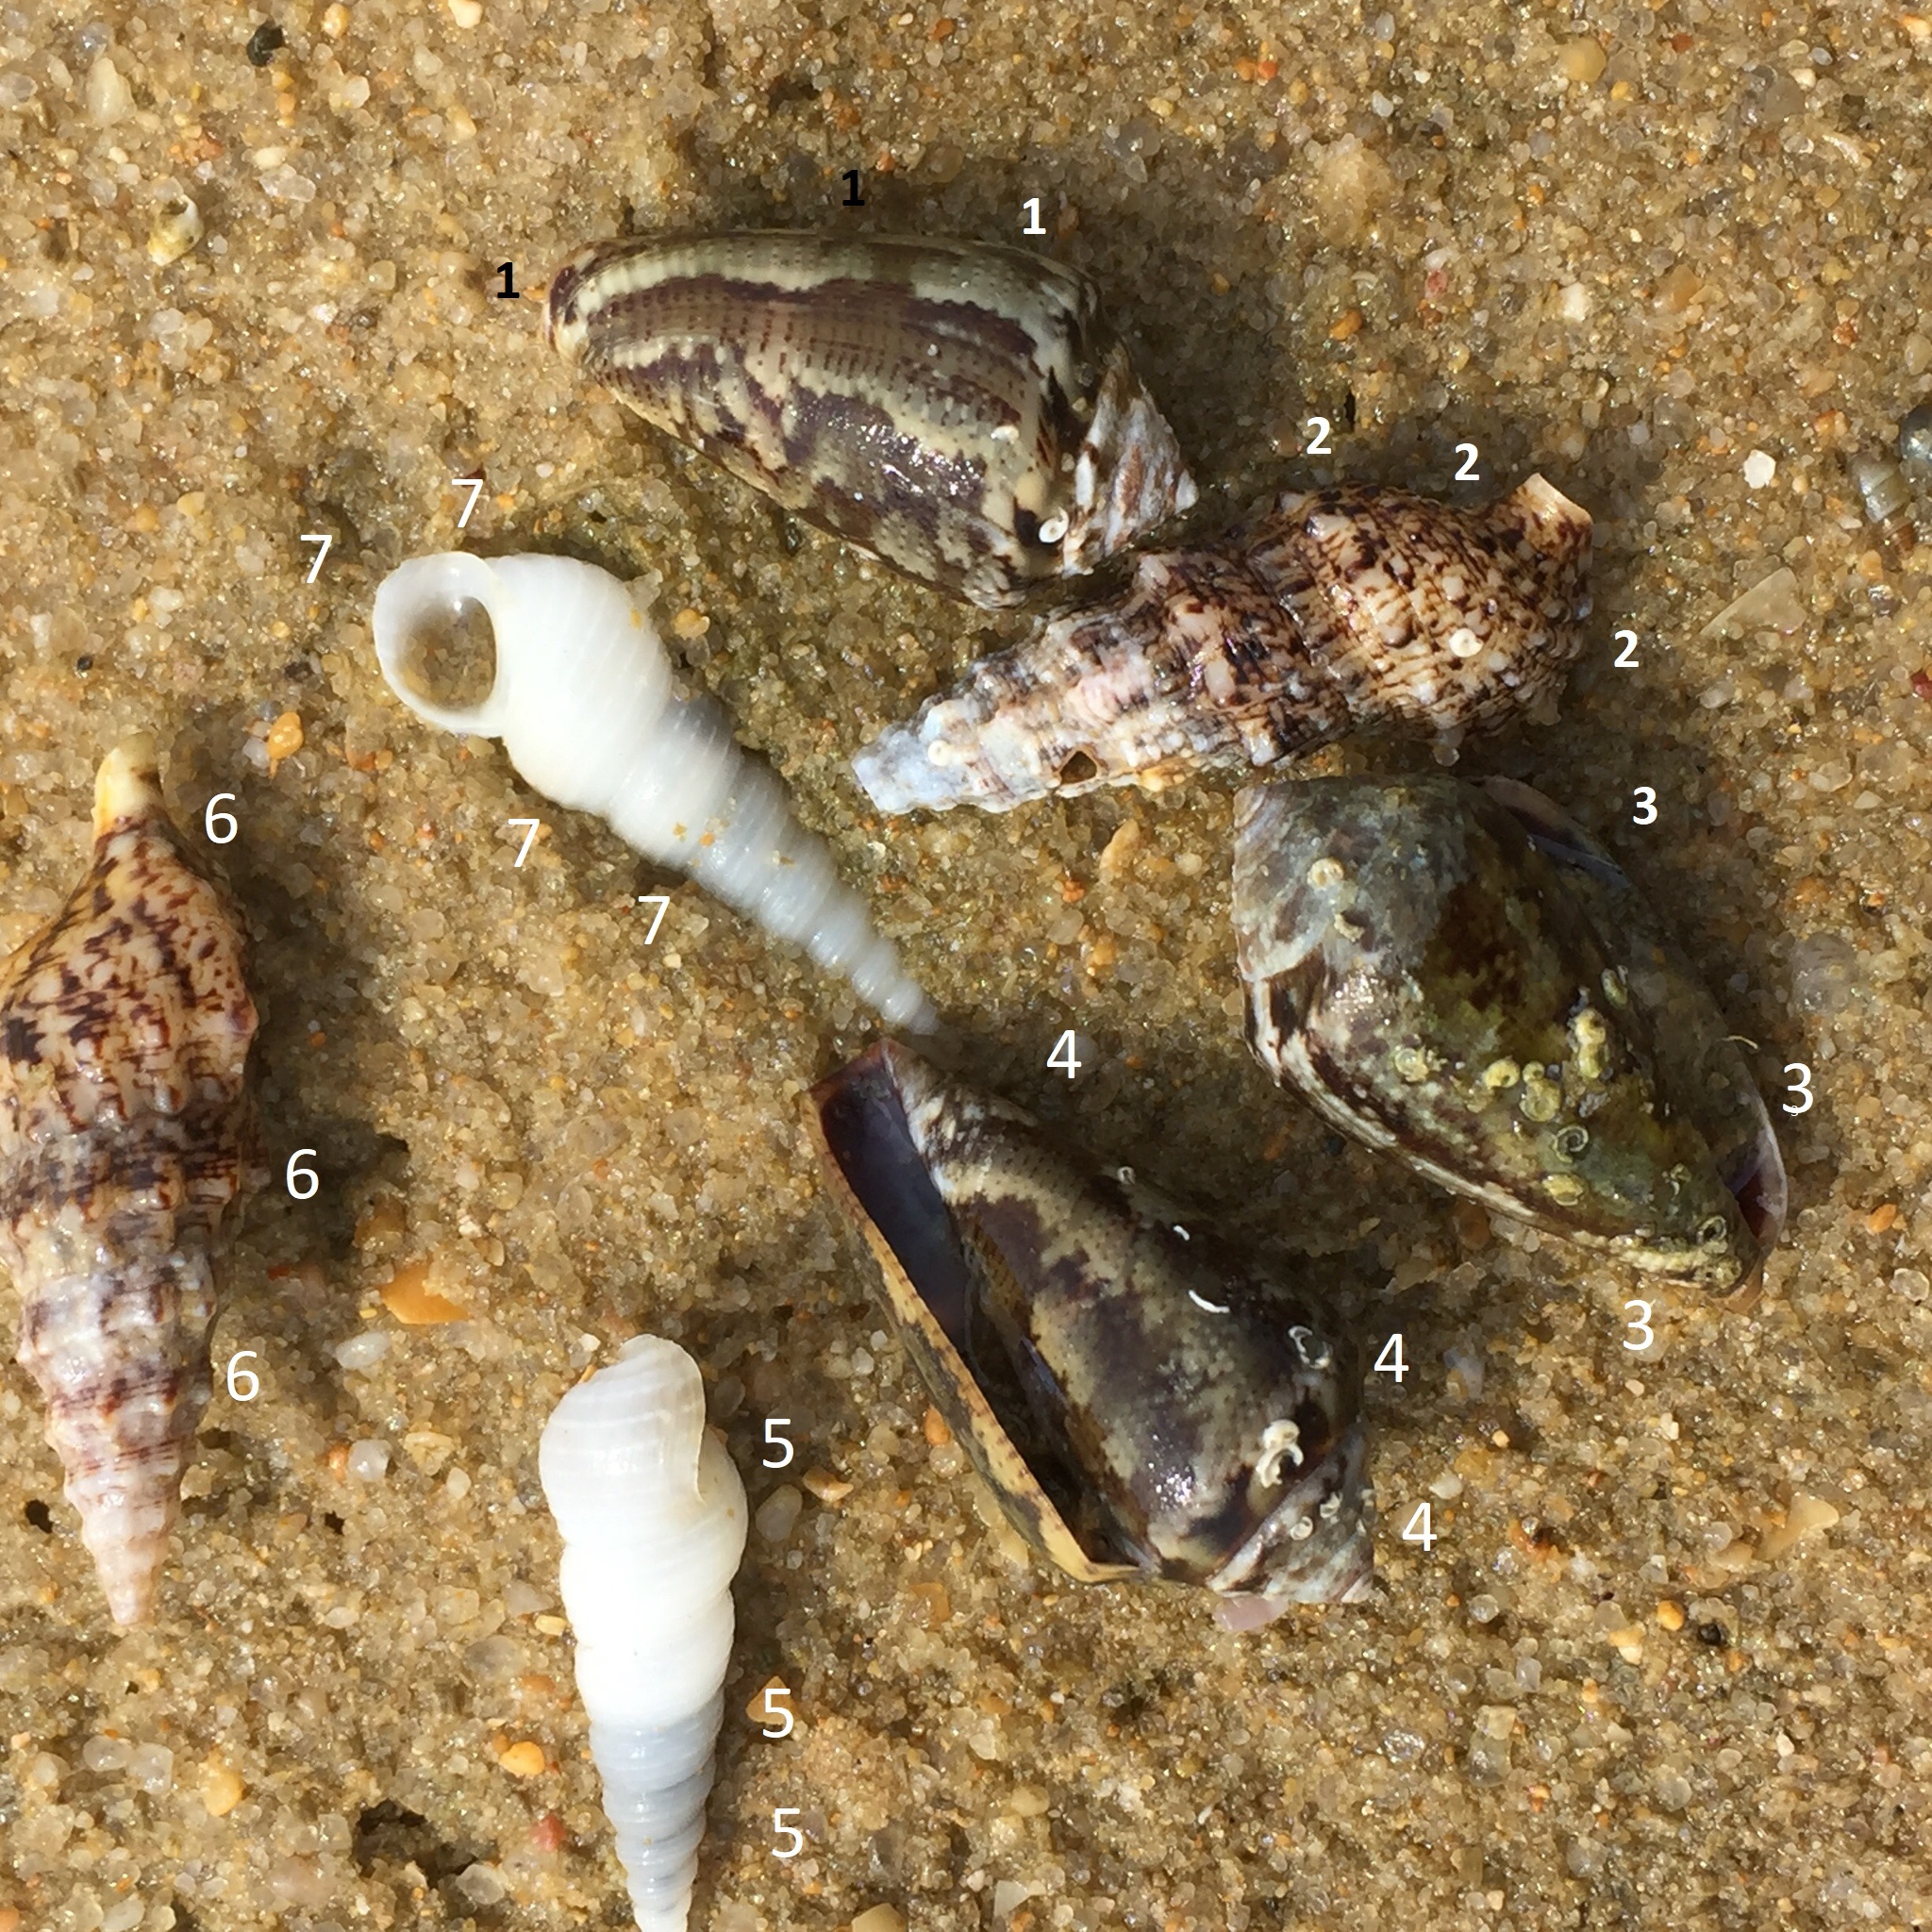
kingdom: Animalia
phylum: Mollusca
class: Gastropoda
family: Cerithiidae
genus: Cerithium
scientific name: Cerithium vulgatum
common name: European cerith
